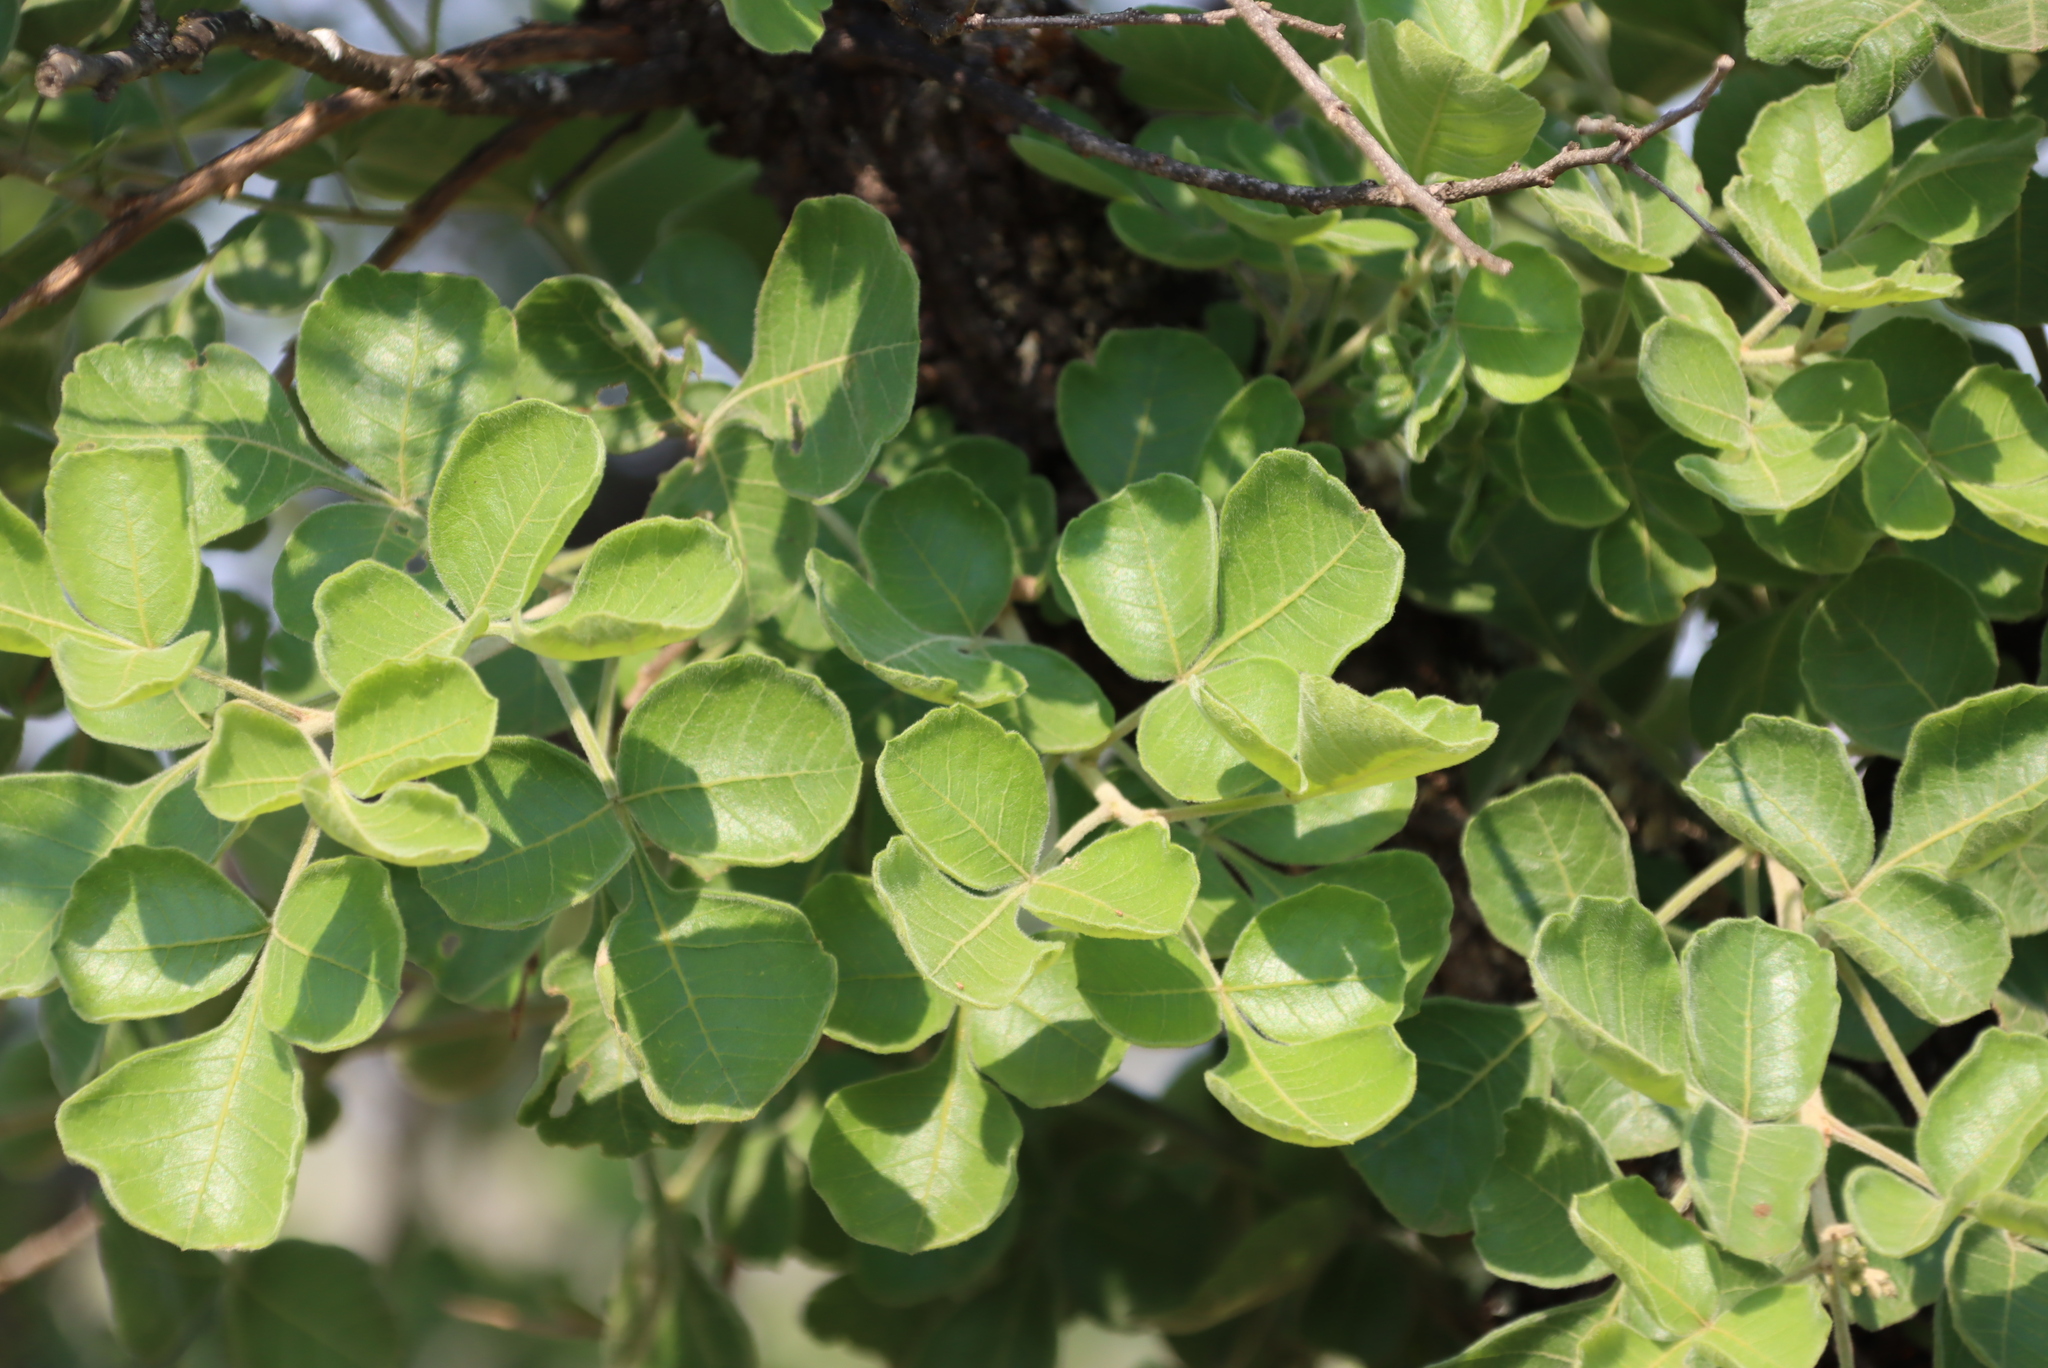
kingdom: Plantae
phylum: Tracheophyta
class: Magnoliopsida
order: Sapindales
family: Anacardiaceae
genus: Searsia
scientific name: Searsia rehmanniana
